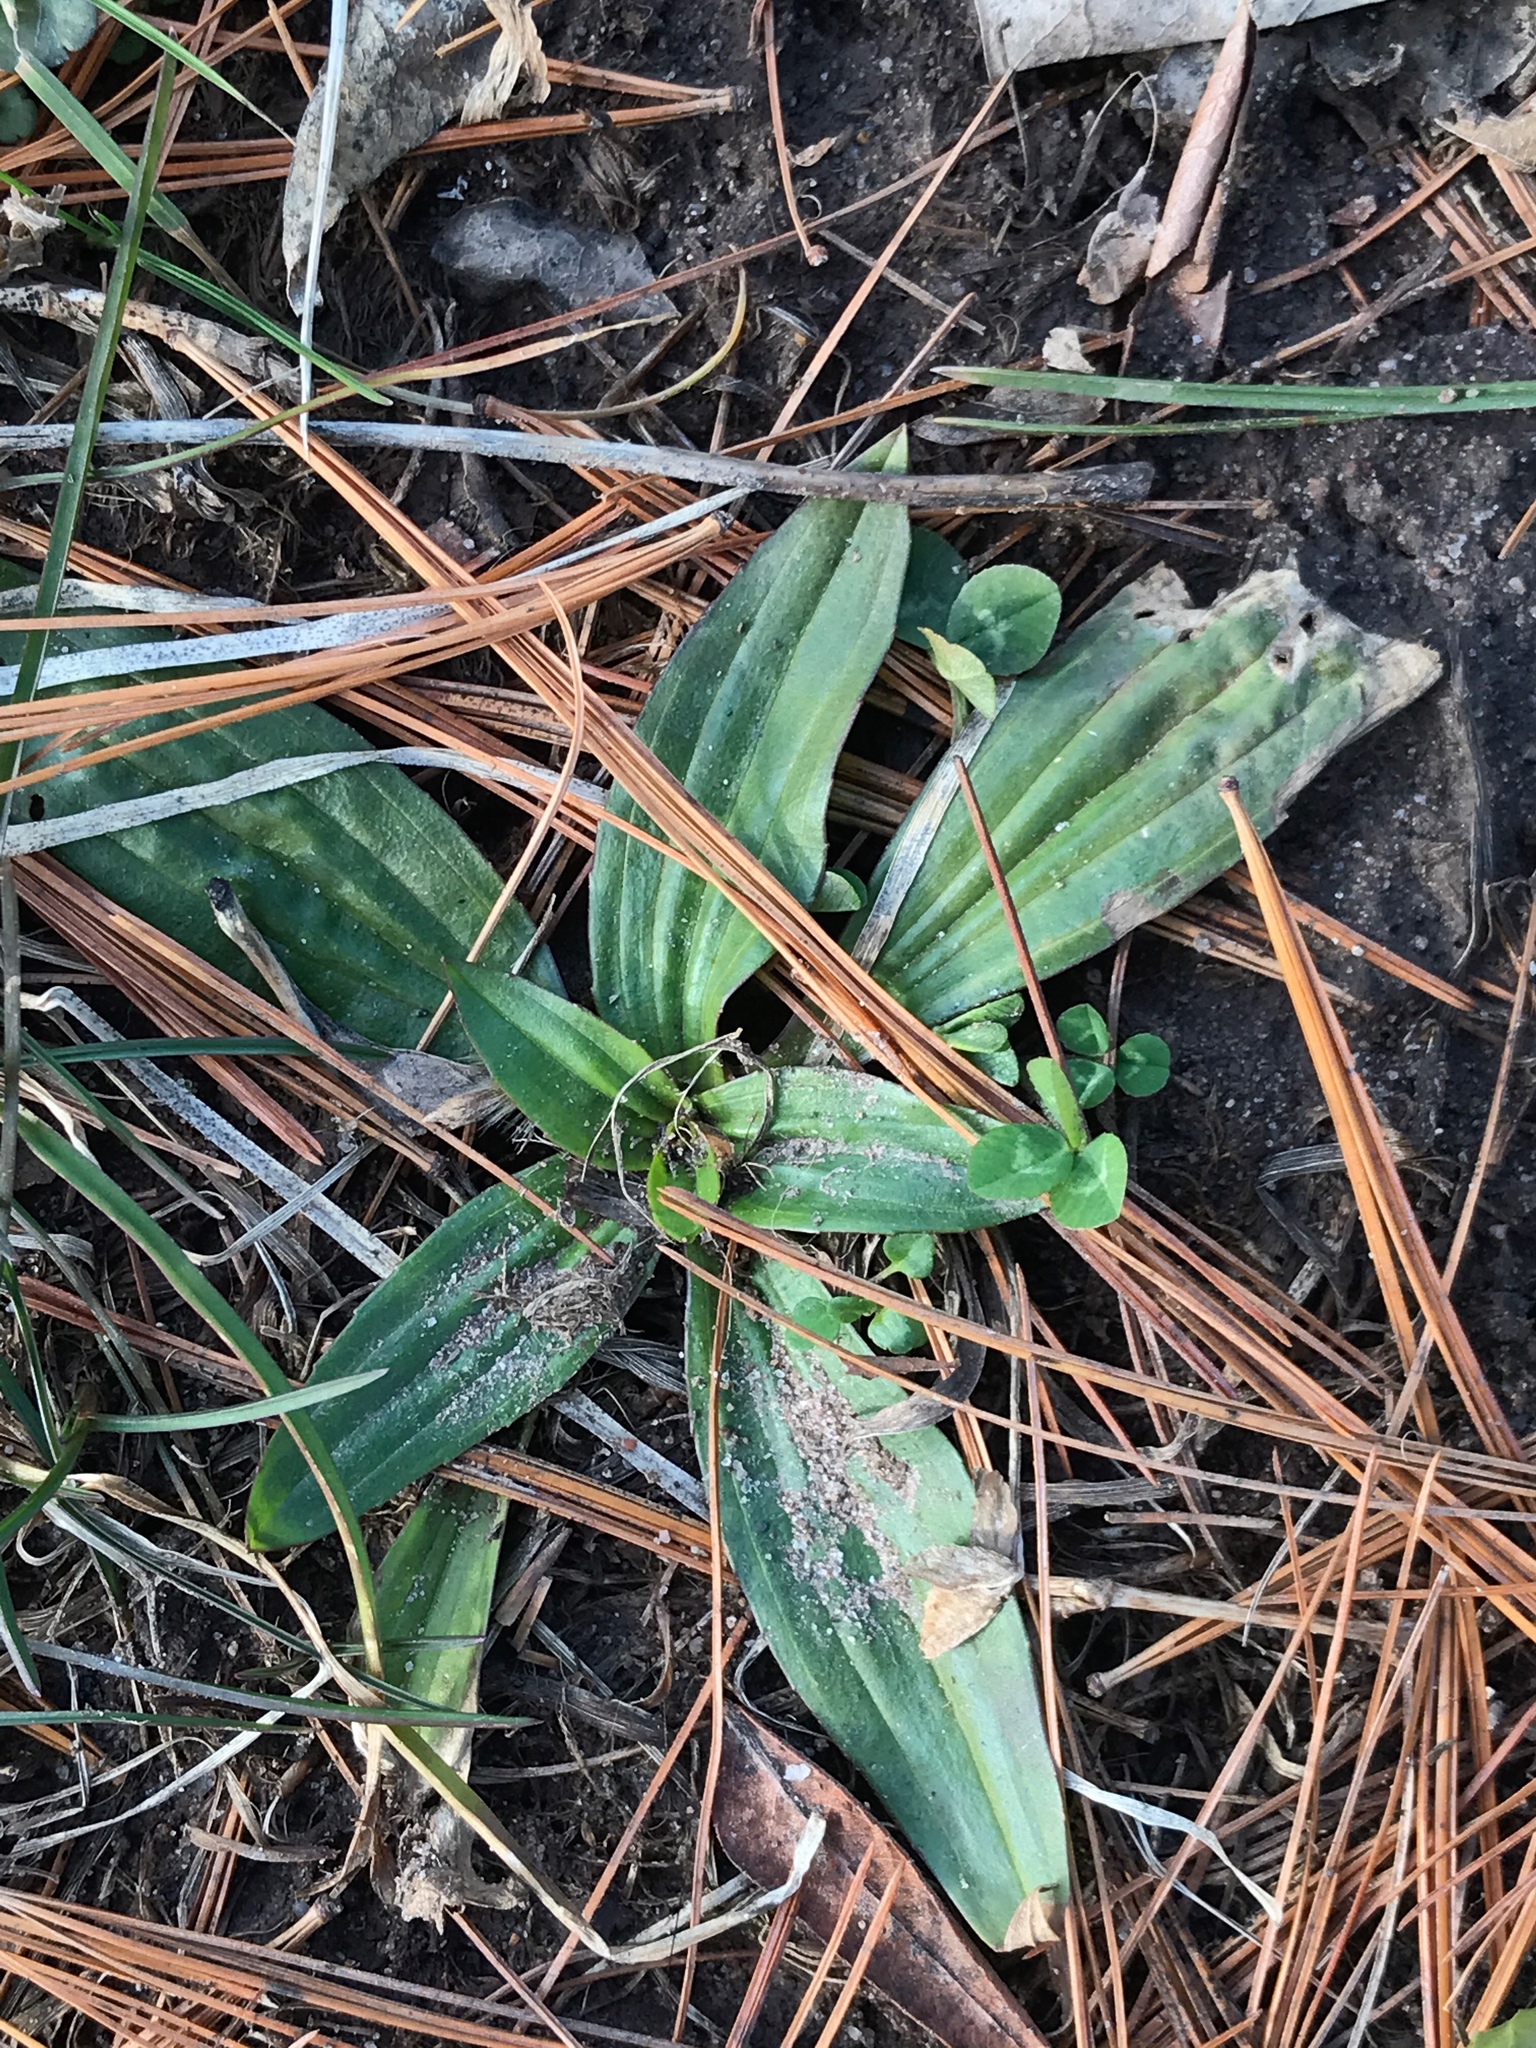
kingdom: Plantae
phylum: Tracheophyta
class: Magnoliopsida
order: Lamiales
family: Plantaginaceae
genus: Plantago
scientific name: Plantago lanceolata
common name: Ribwort plantain
